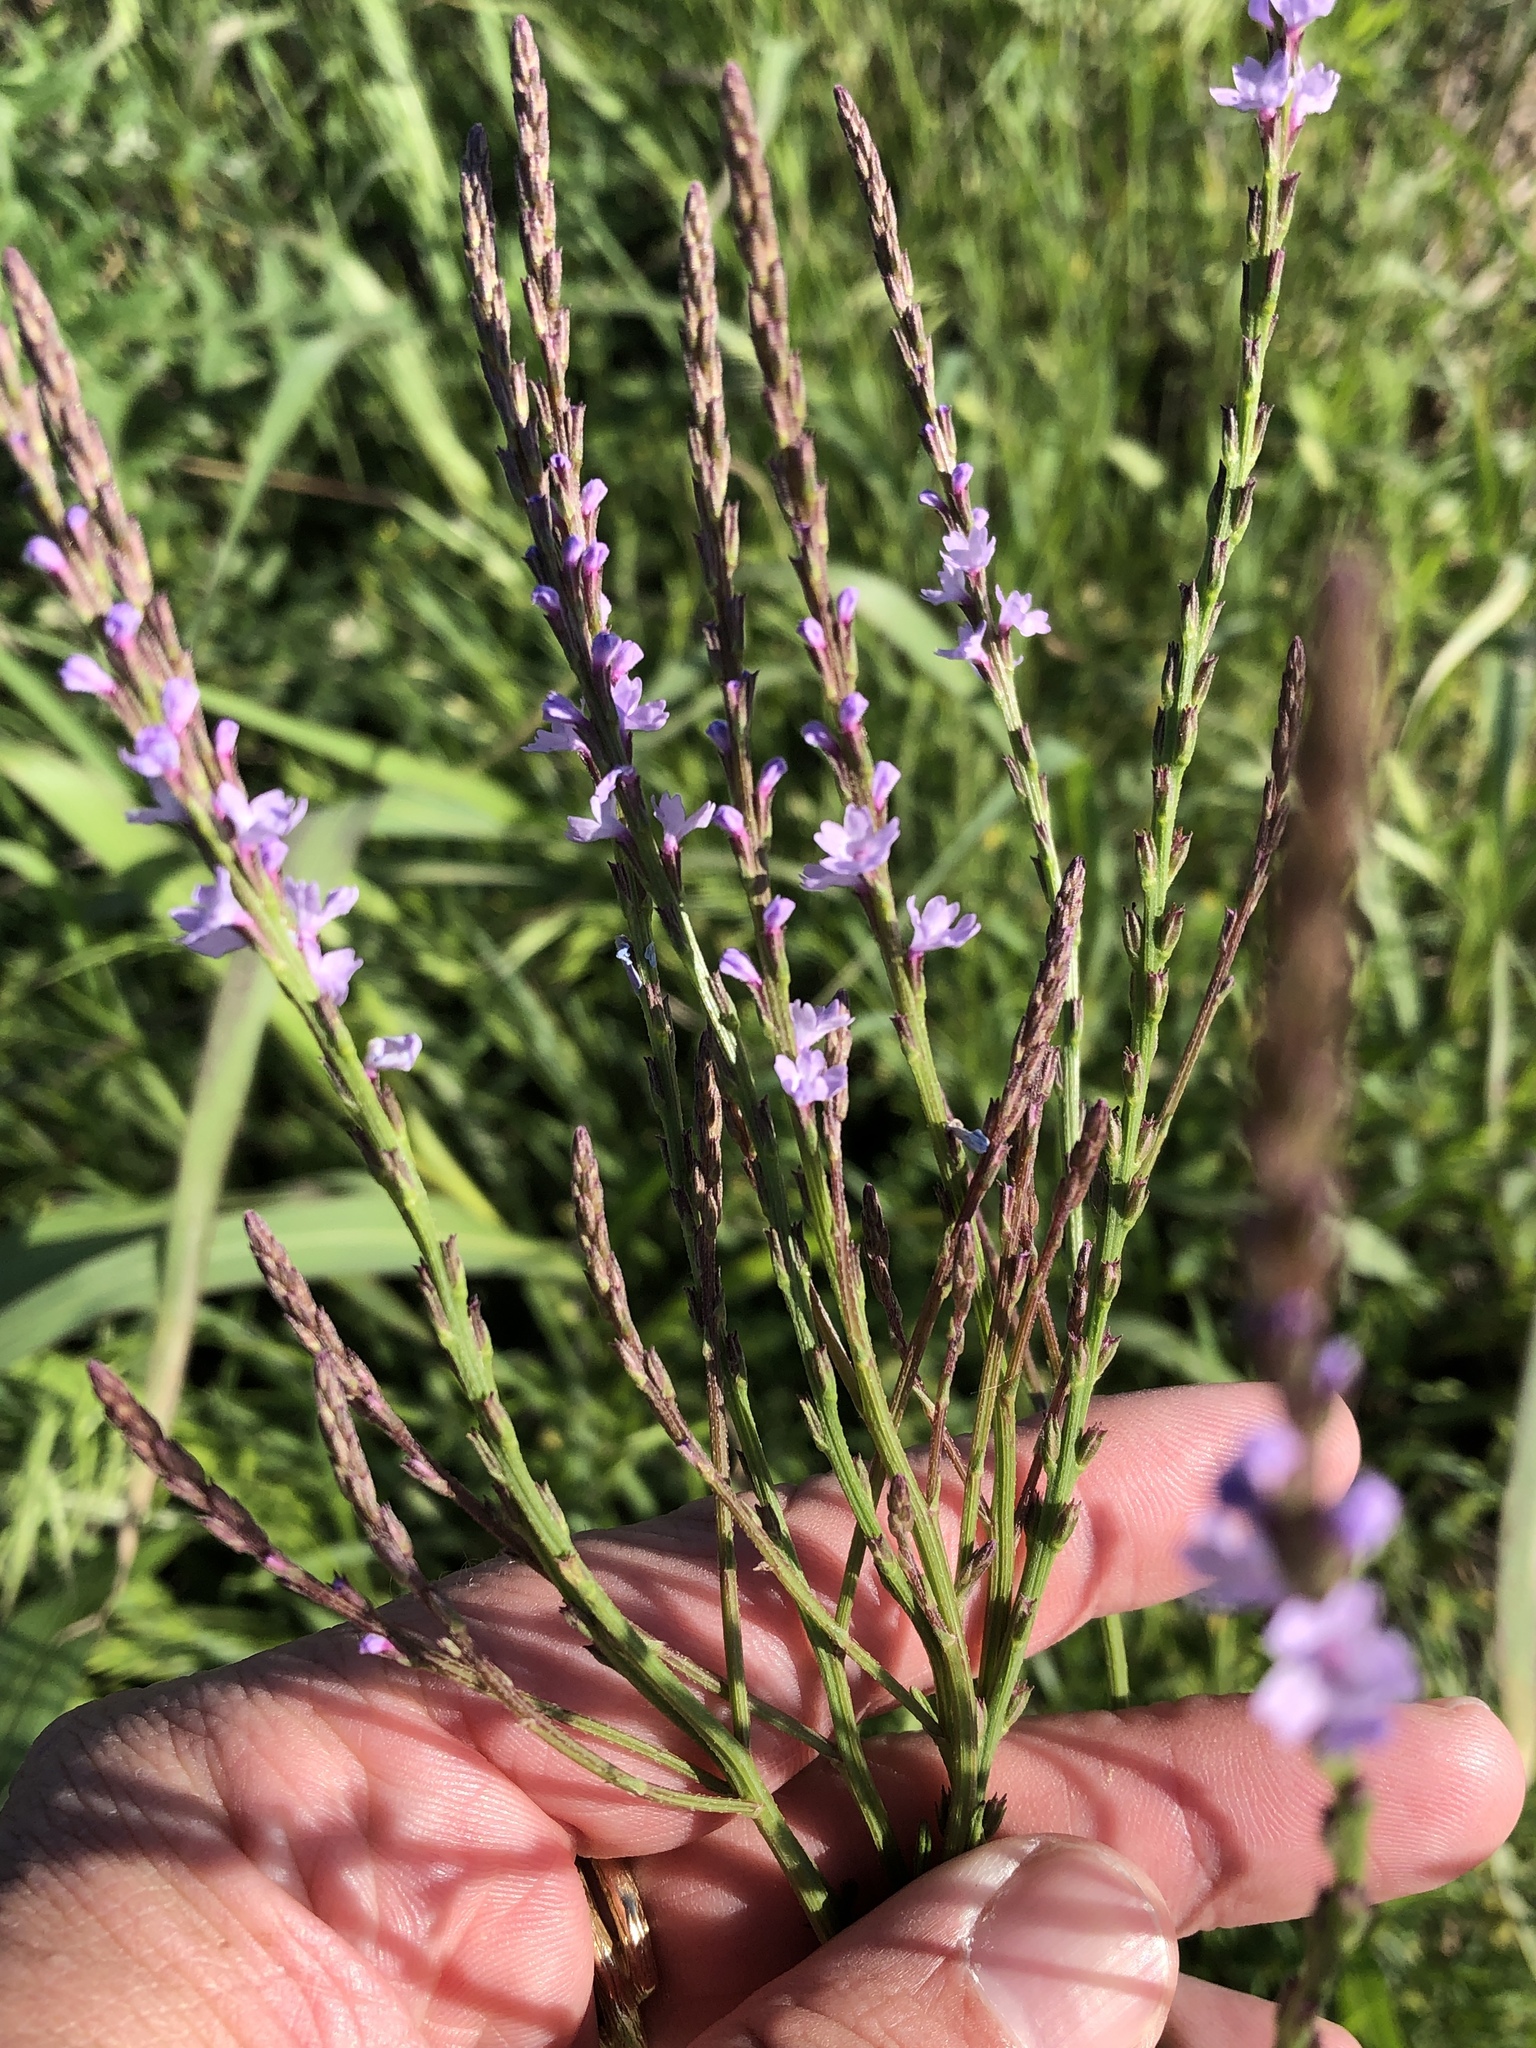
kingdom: Plantae
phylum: Tracheophyta
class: Magnoliopsida
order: Lamiales
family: Verbenaceae
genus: Verbena
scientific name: Verbena halei
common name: Texas vervain
